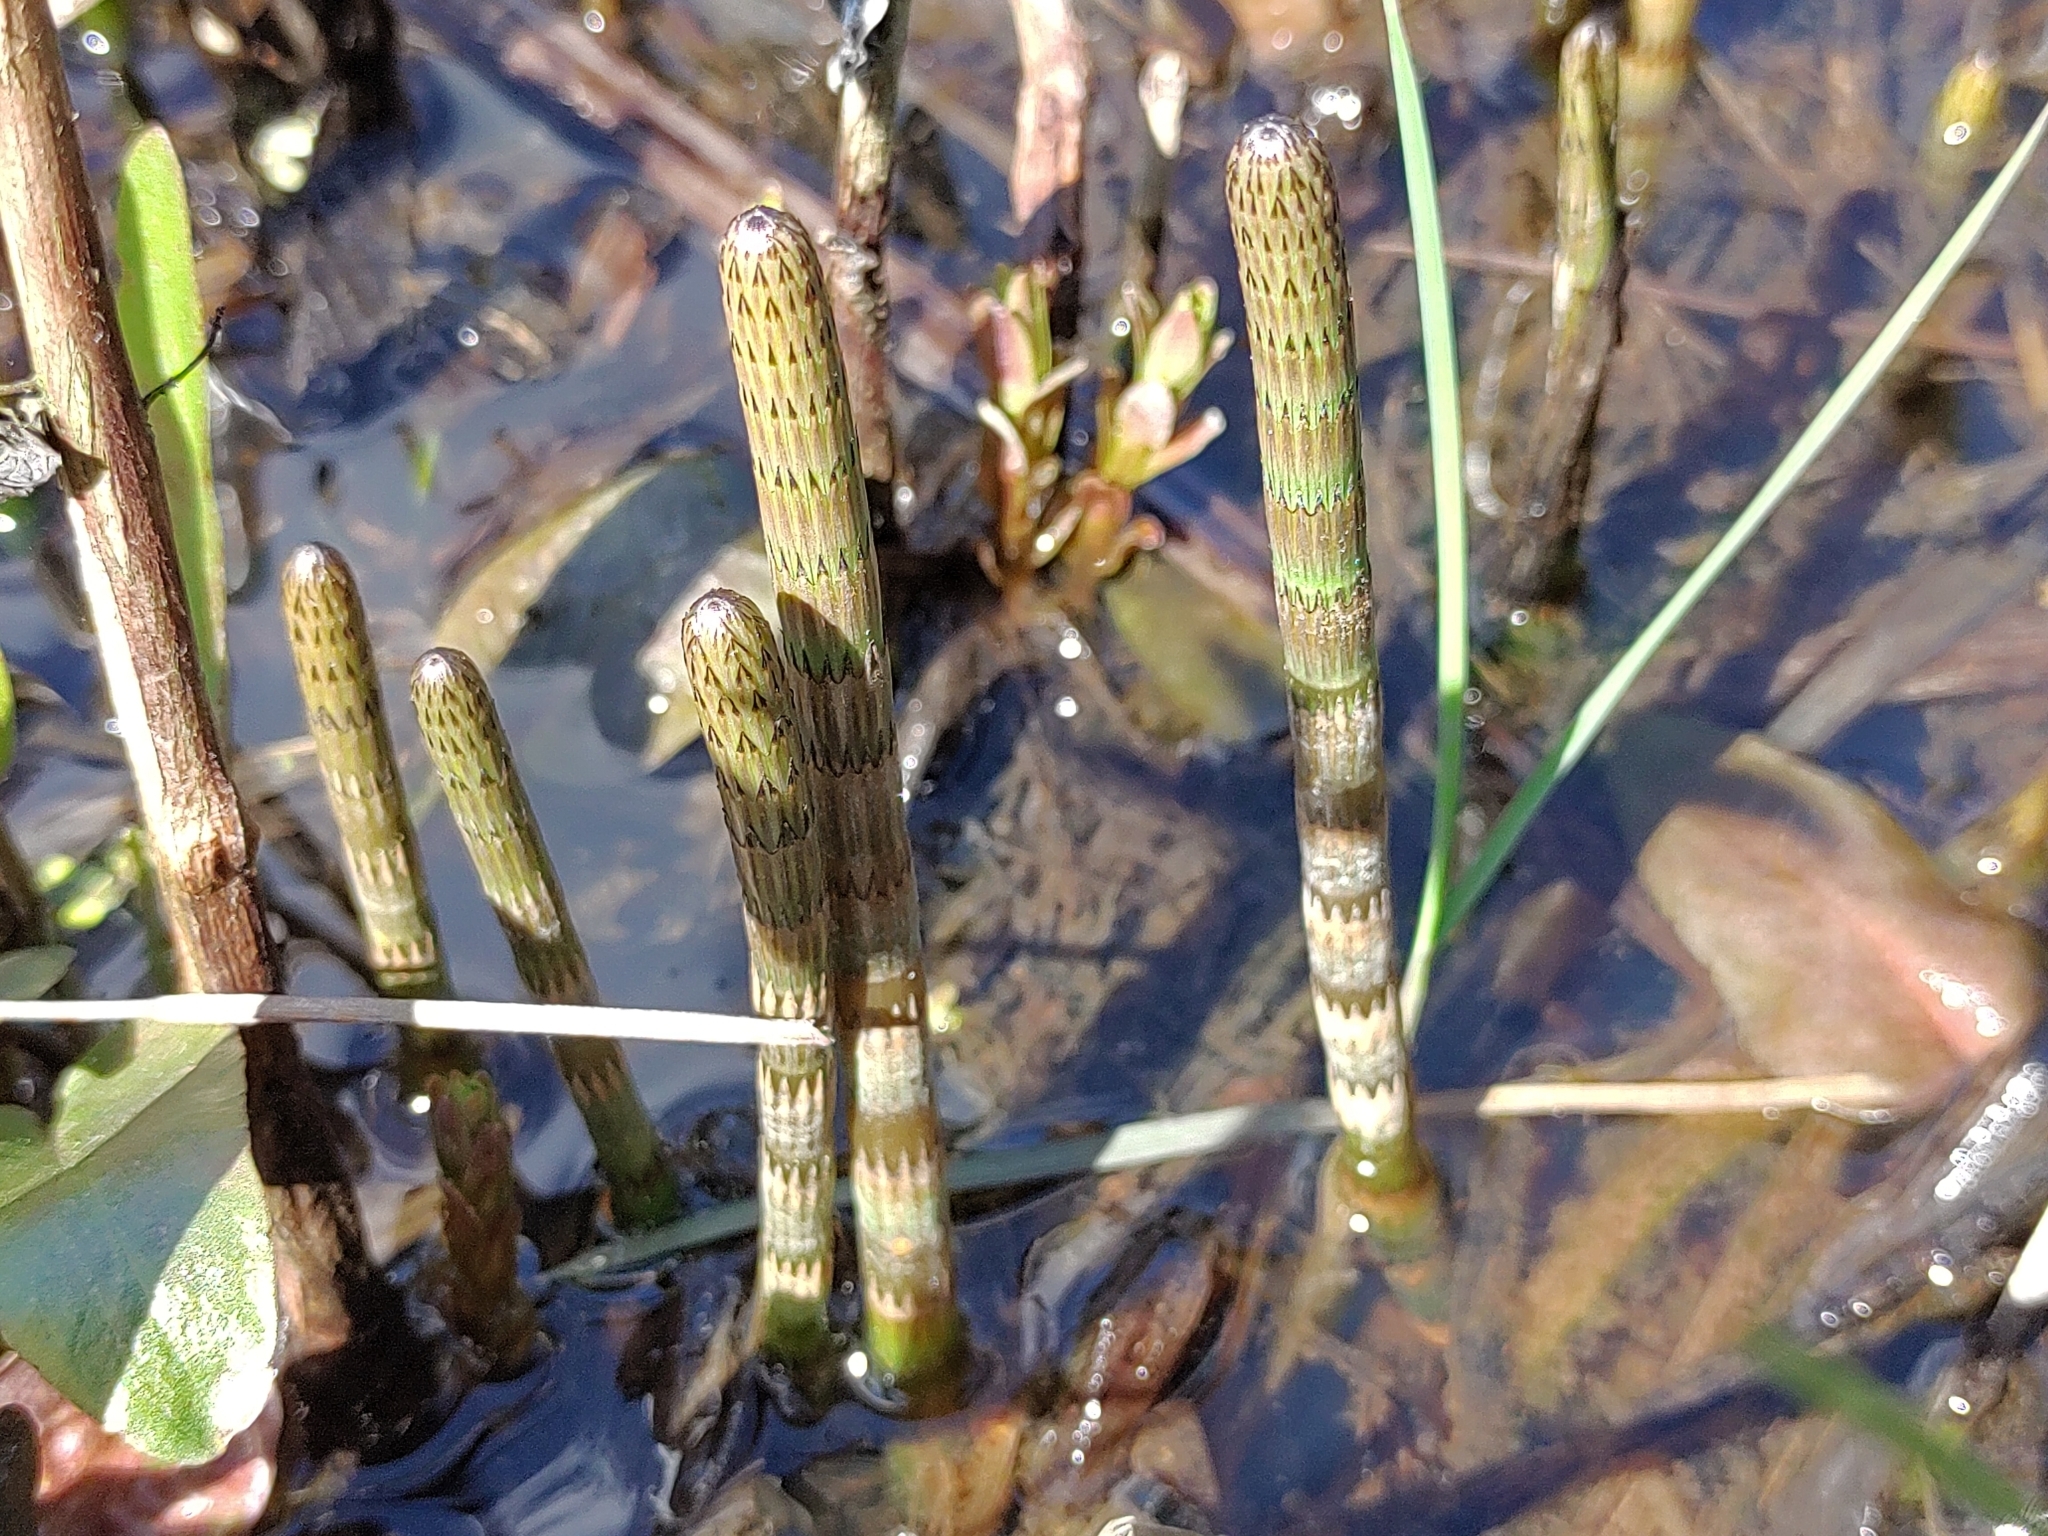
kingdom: Plantae
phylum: Tracheophyta
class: Polypodiopsida
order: Equisetales
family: Equisetaceae
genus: Equisetum
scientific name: Equisetum fluviatile
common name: Water horsetail
